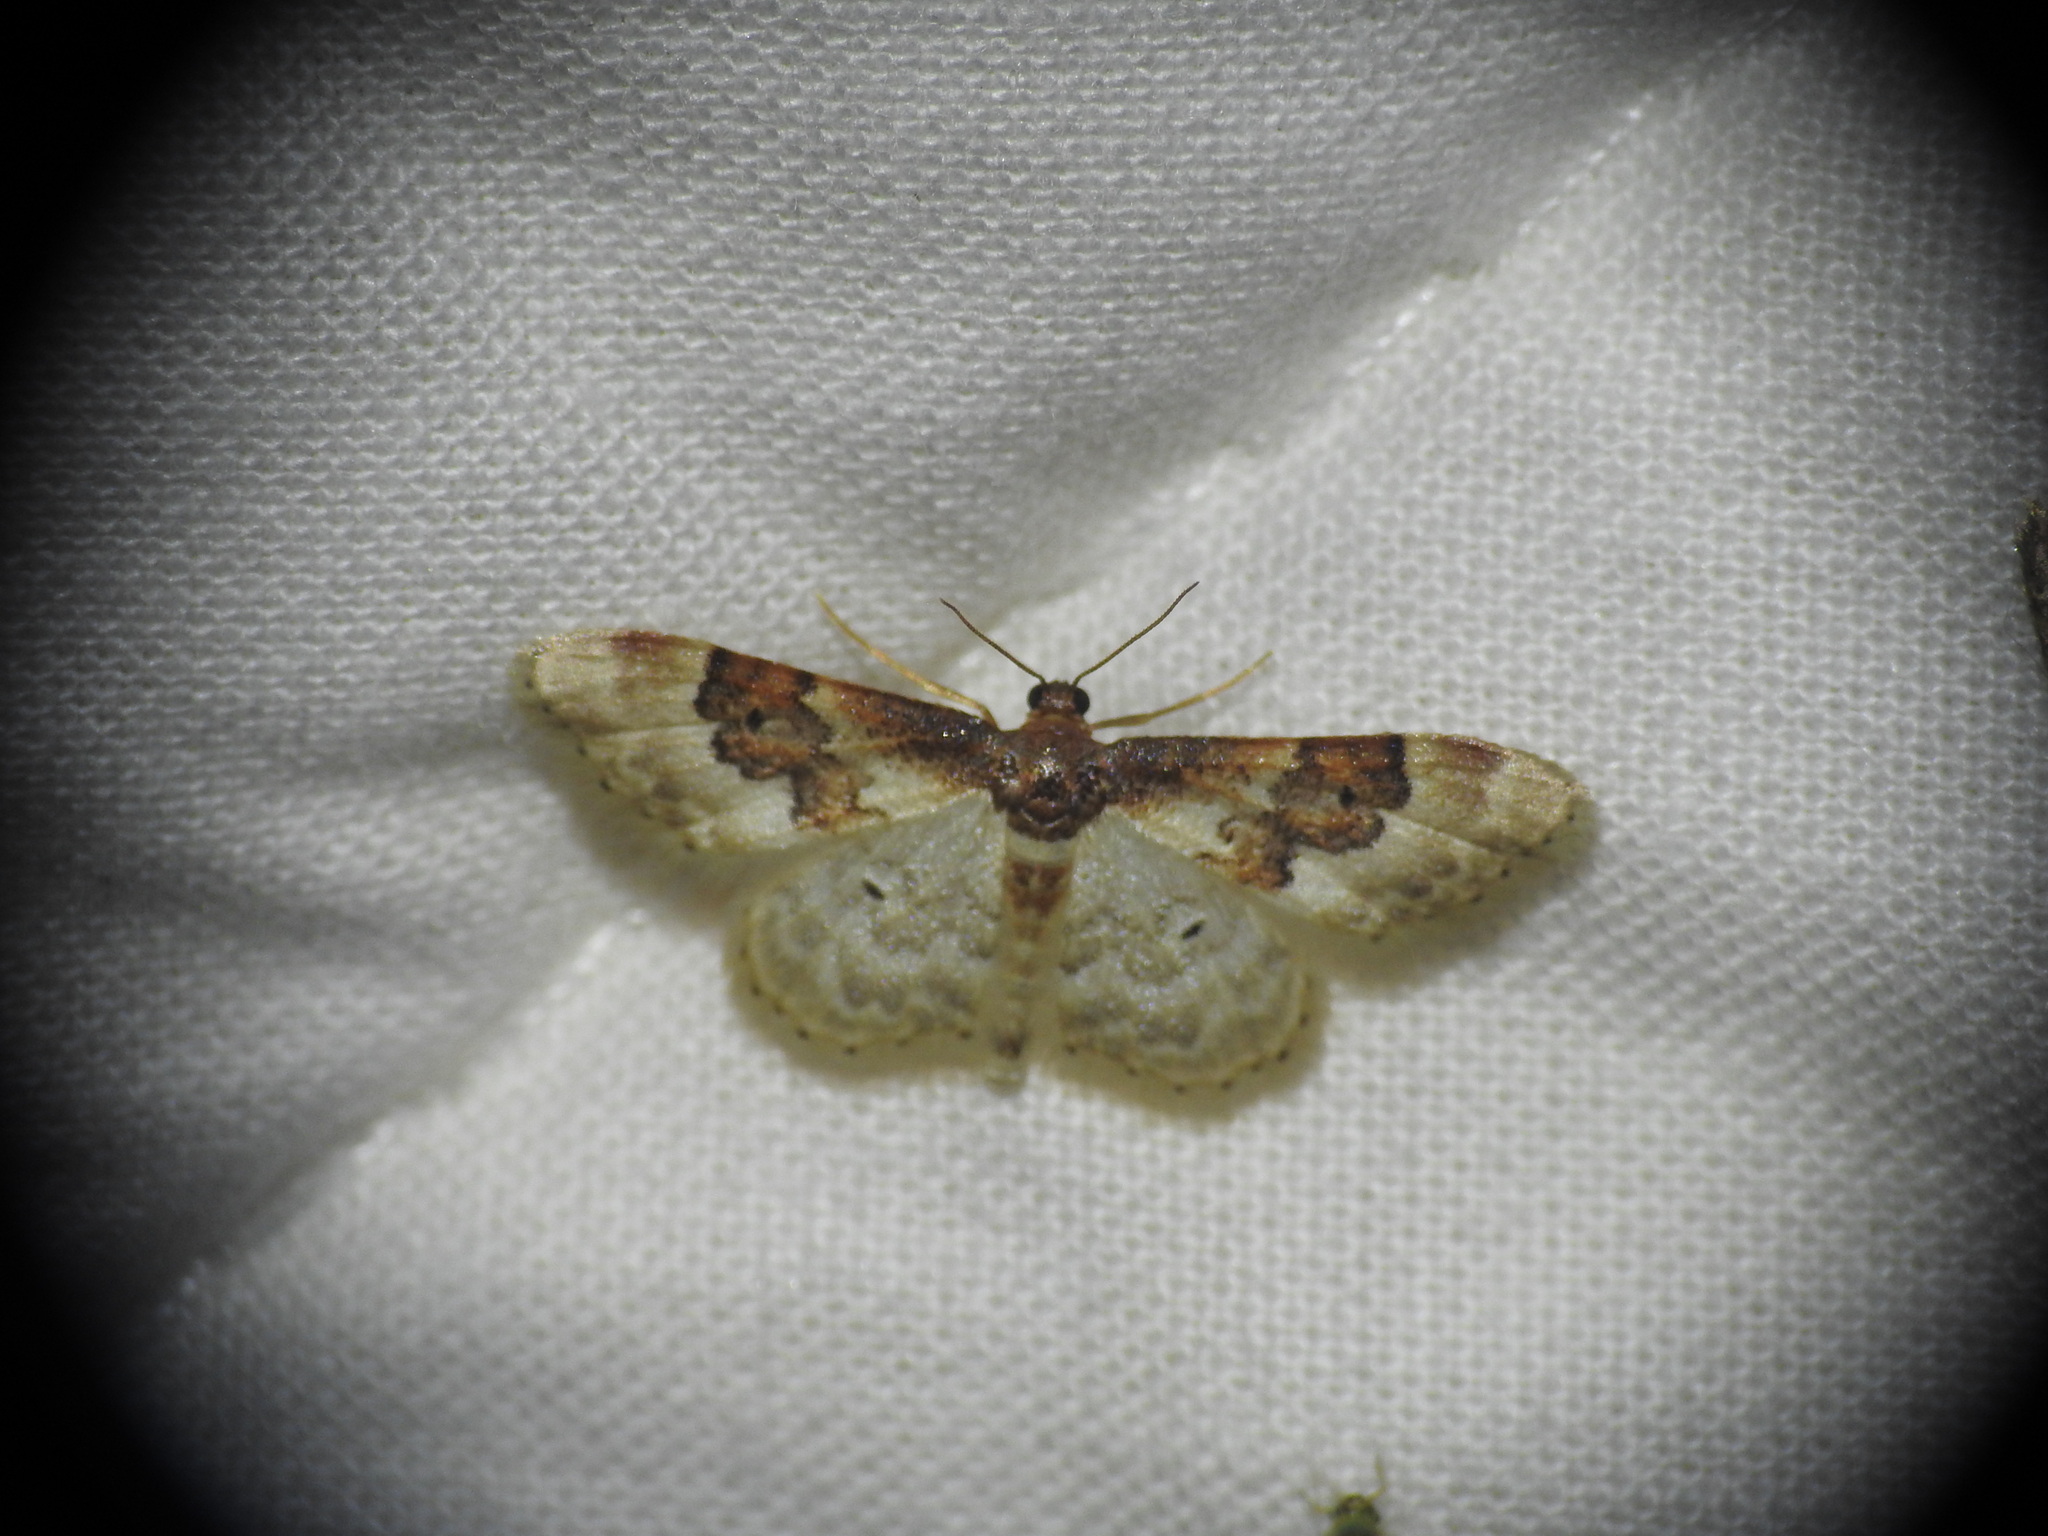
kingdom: Animalia
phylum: Arthropoda
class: Insecta
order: Lepidoptera
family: Geometridae
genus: Idaea
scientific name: Idaea rusticata
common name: Least carpet
